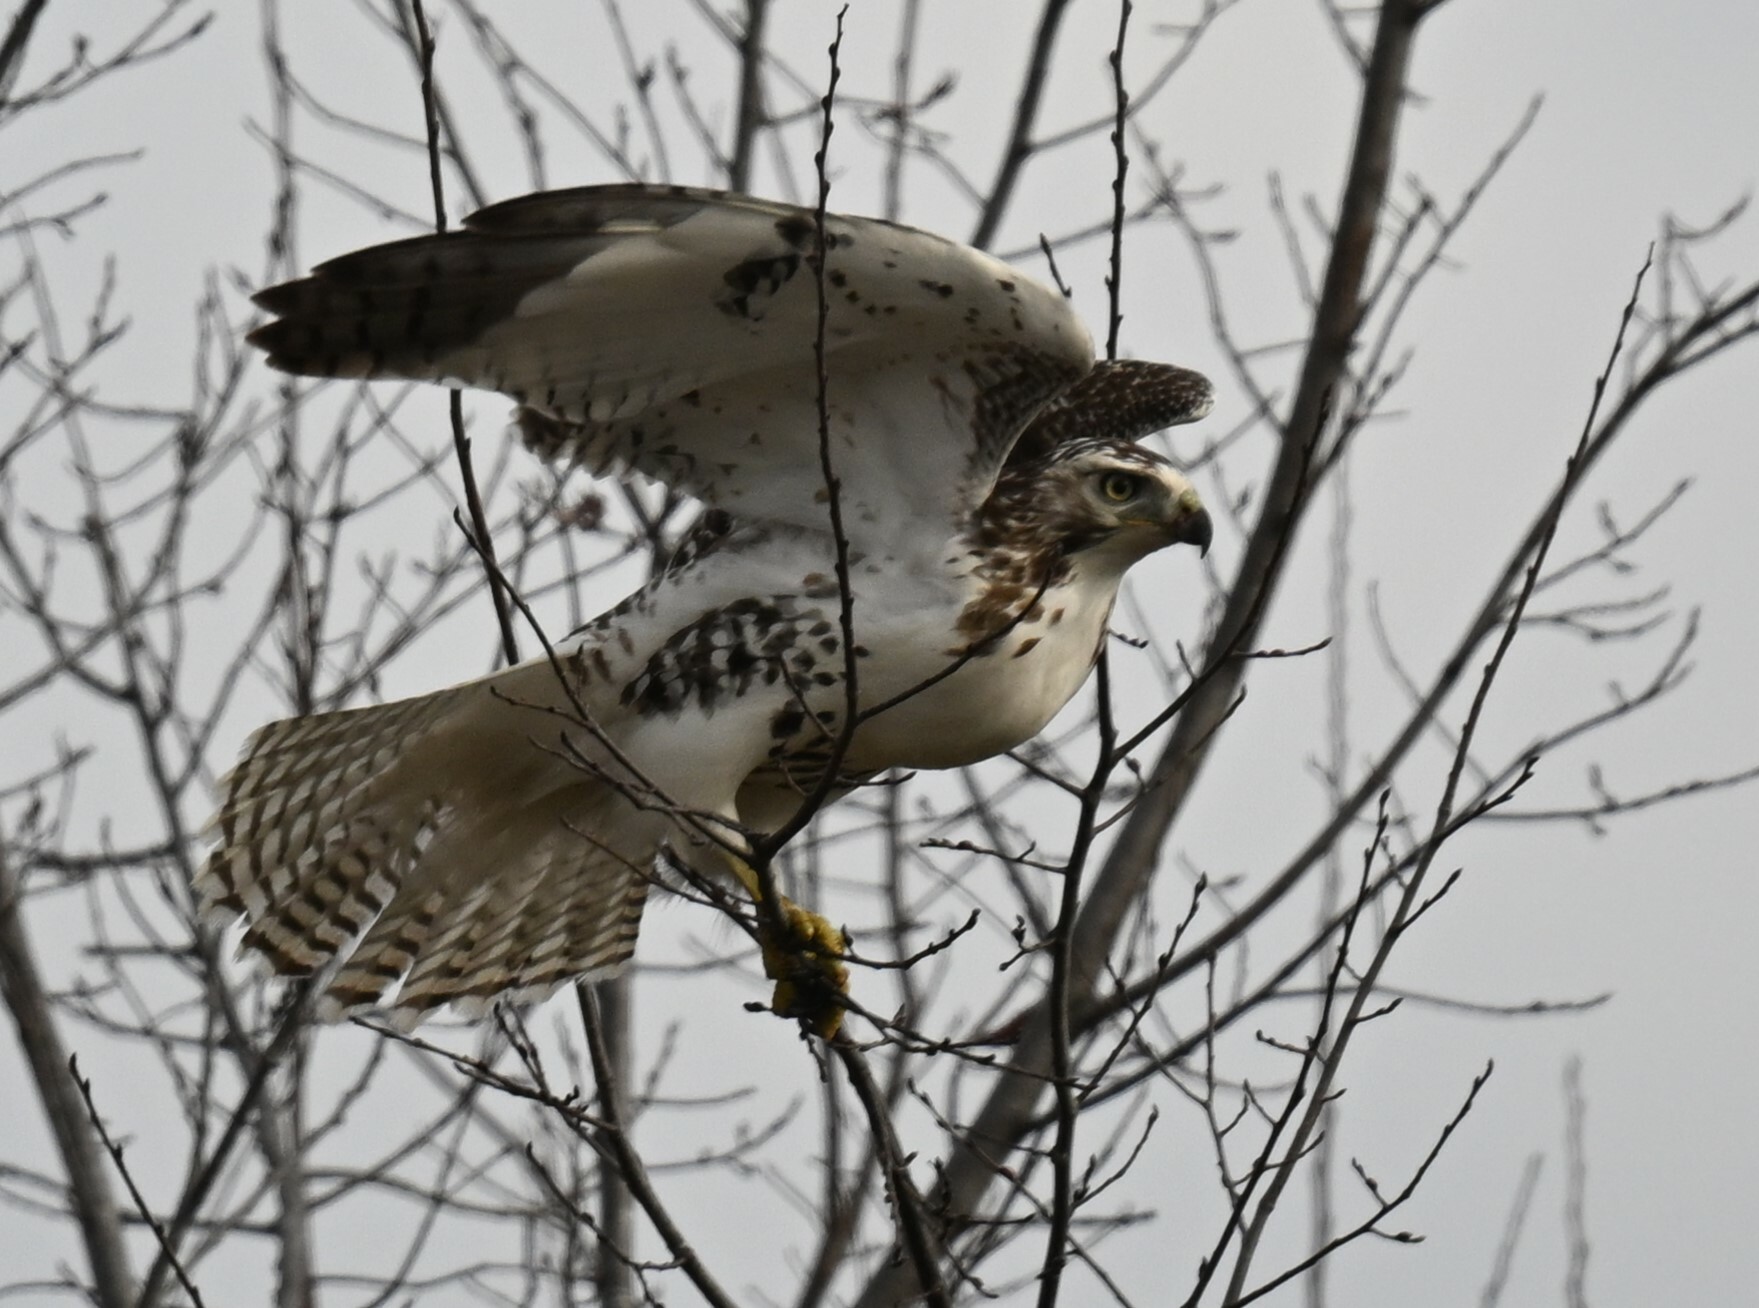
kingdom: Animalia
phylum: Chordata
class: Aves
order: Accipitriformes
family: Accipitridae
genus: Buteo
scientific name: Buteo jamaicensis
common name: Red-tailed hawk
